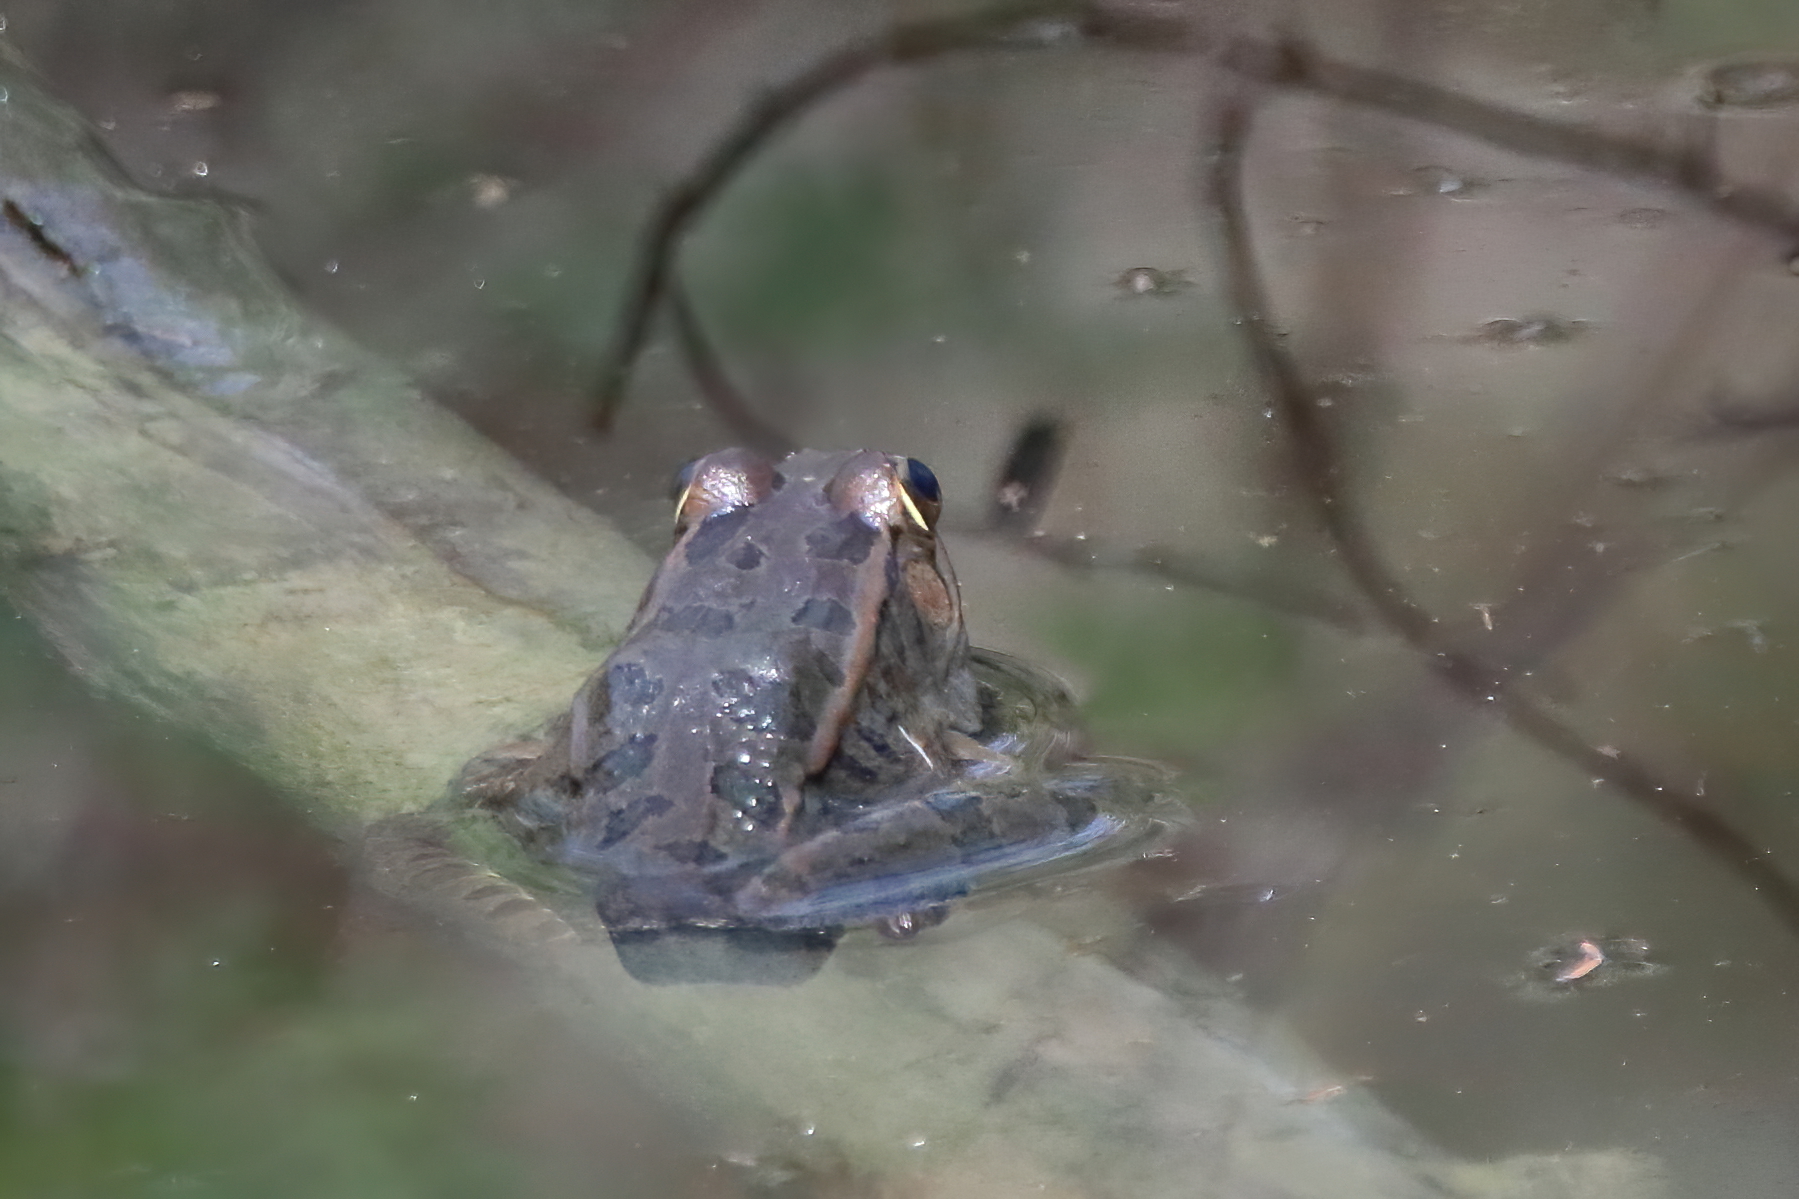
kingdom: Animalia
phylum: Chordata
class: Amphibia
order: Anura
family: Ranidae
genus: Lithobates
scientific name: Lithobates berlandieri
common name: Rio grande leopard frog
